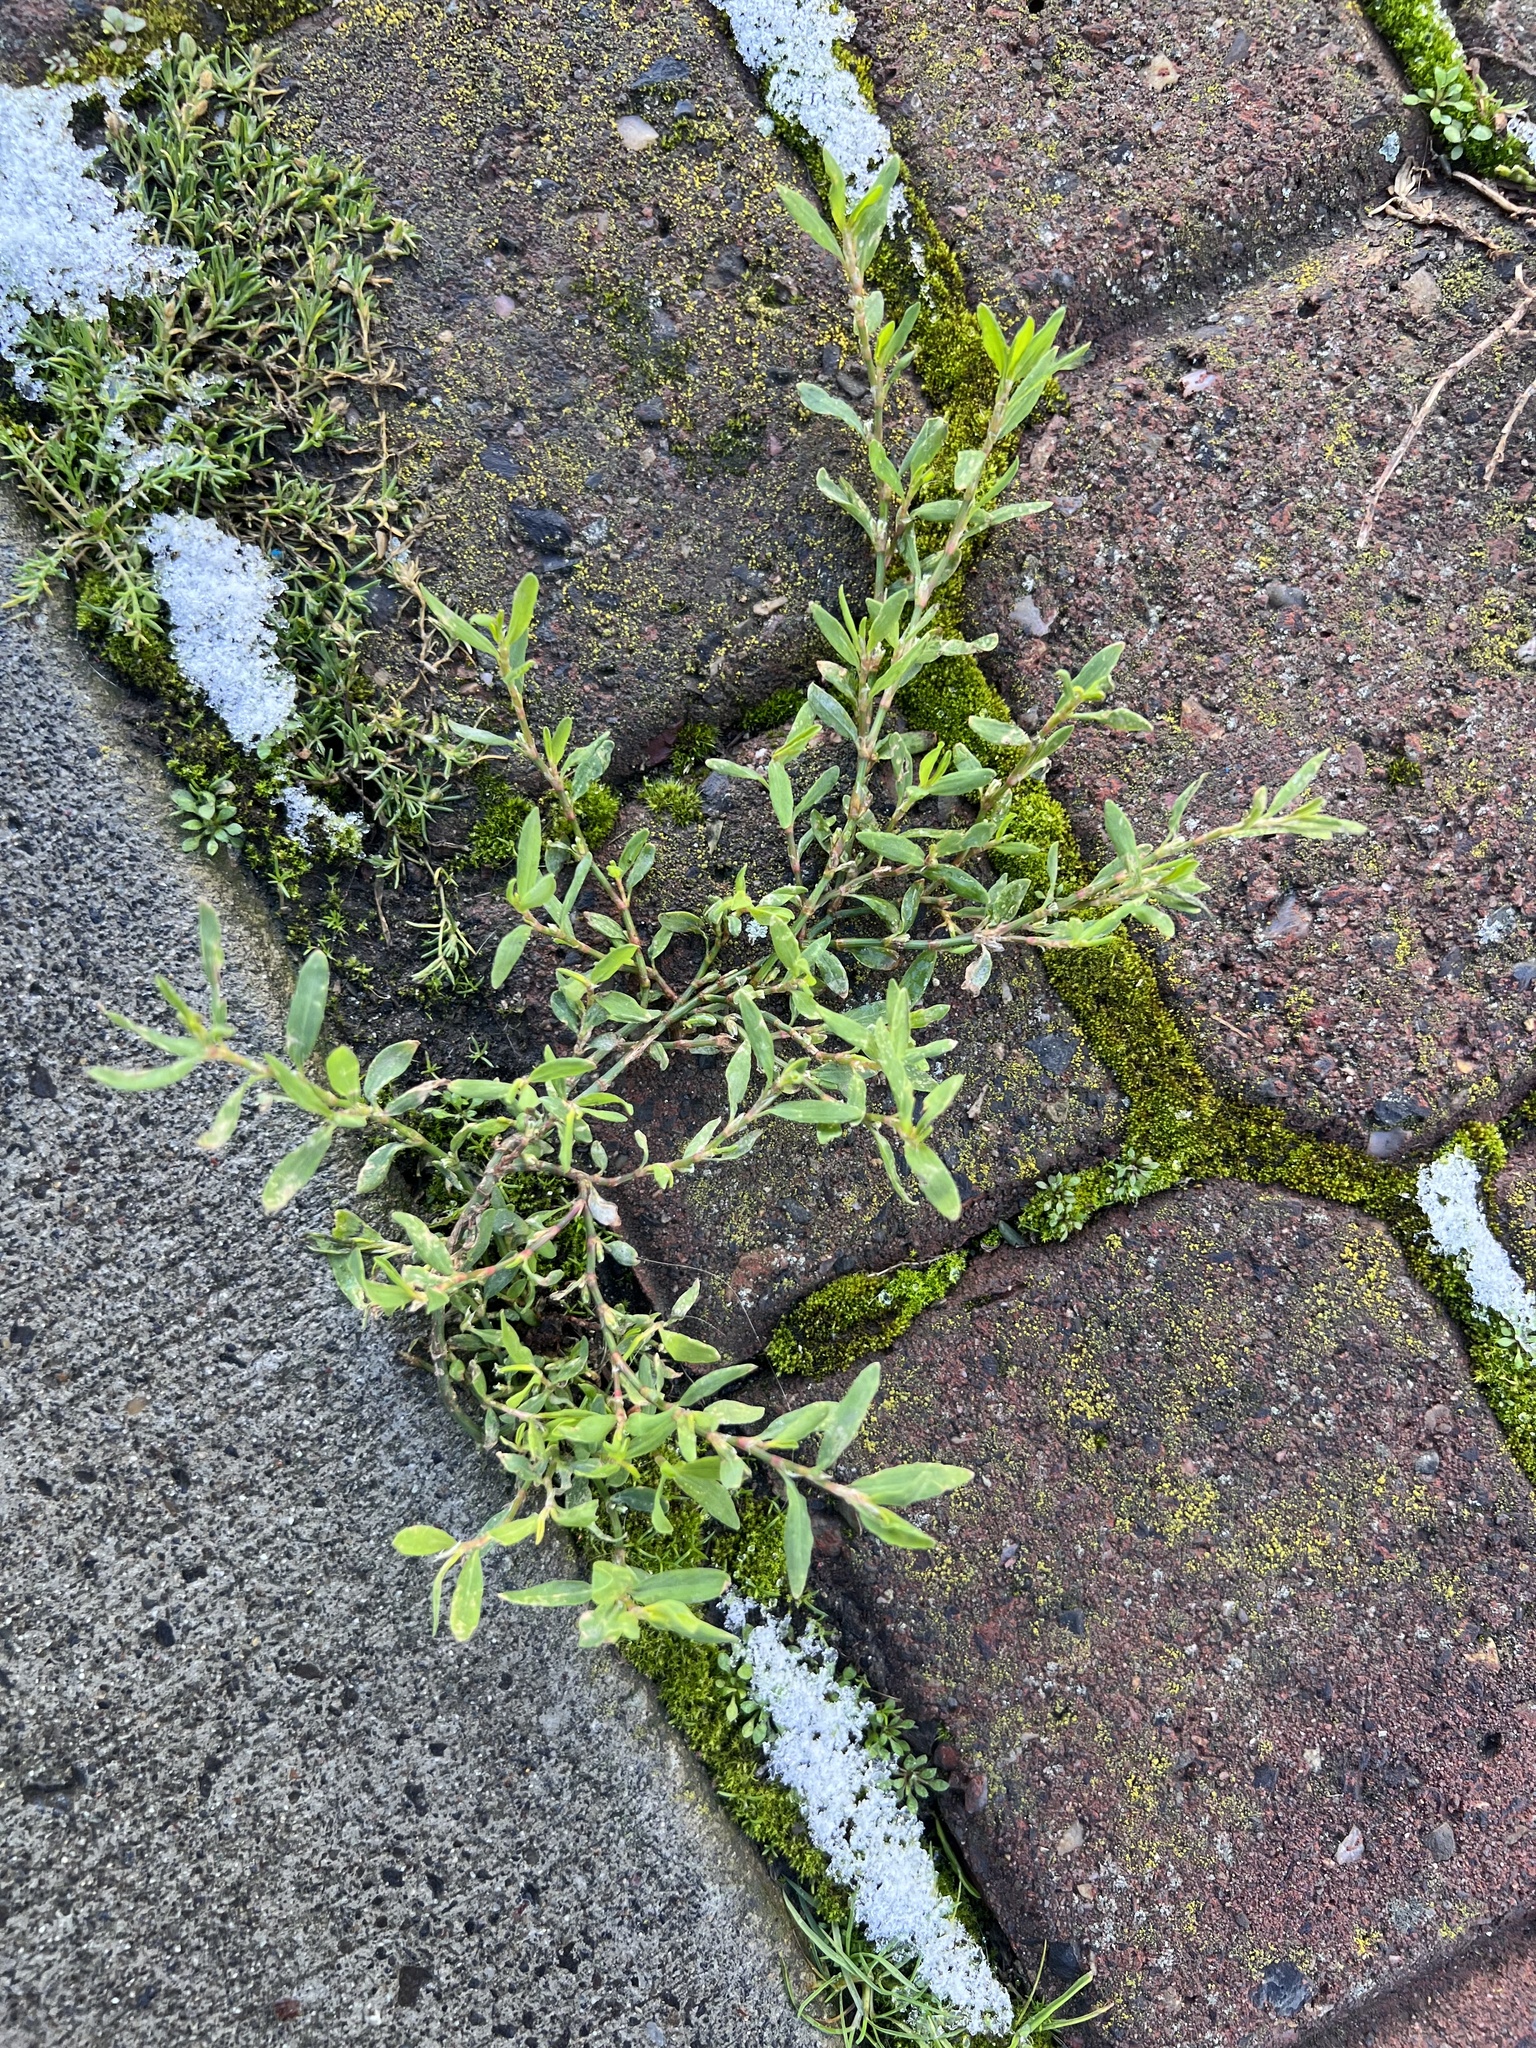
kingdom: Plantae
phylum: Tracheophyta
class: Magnoliopsida
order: Caryophyllales
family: Polygonaceae
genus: Polygonum
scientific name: Polygonum aviculare
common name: Prostrate knotweed
